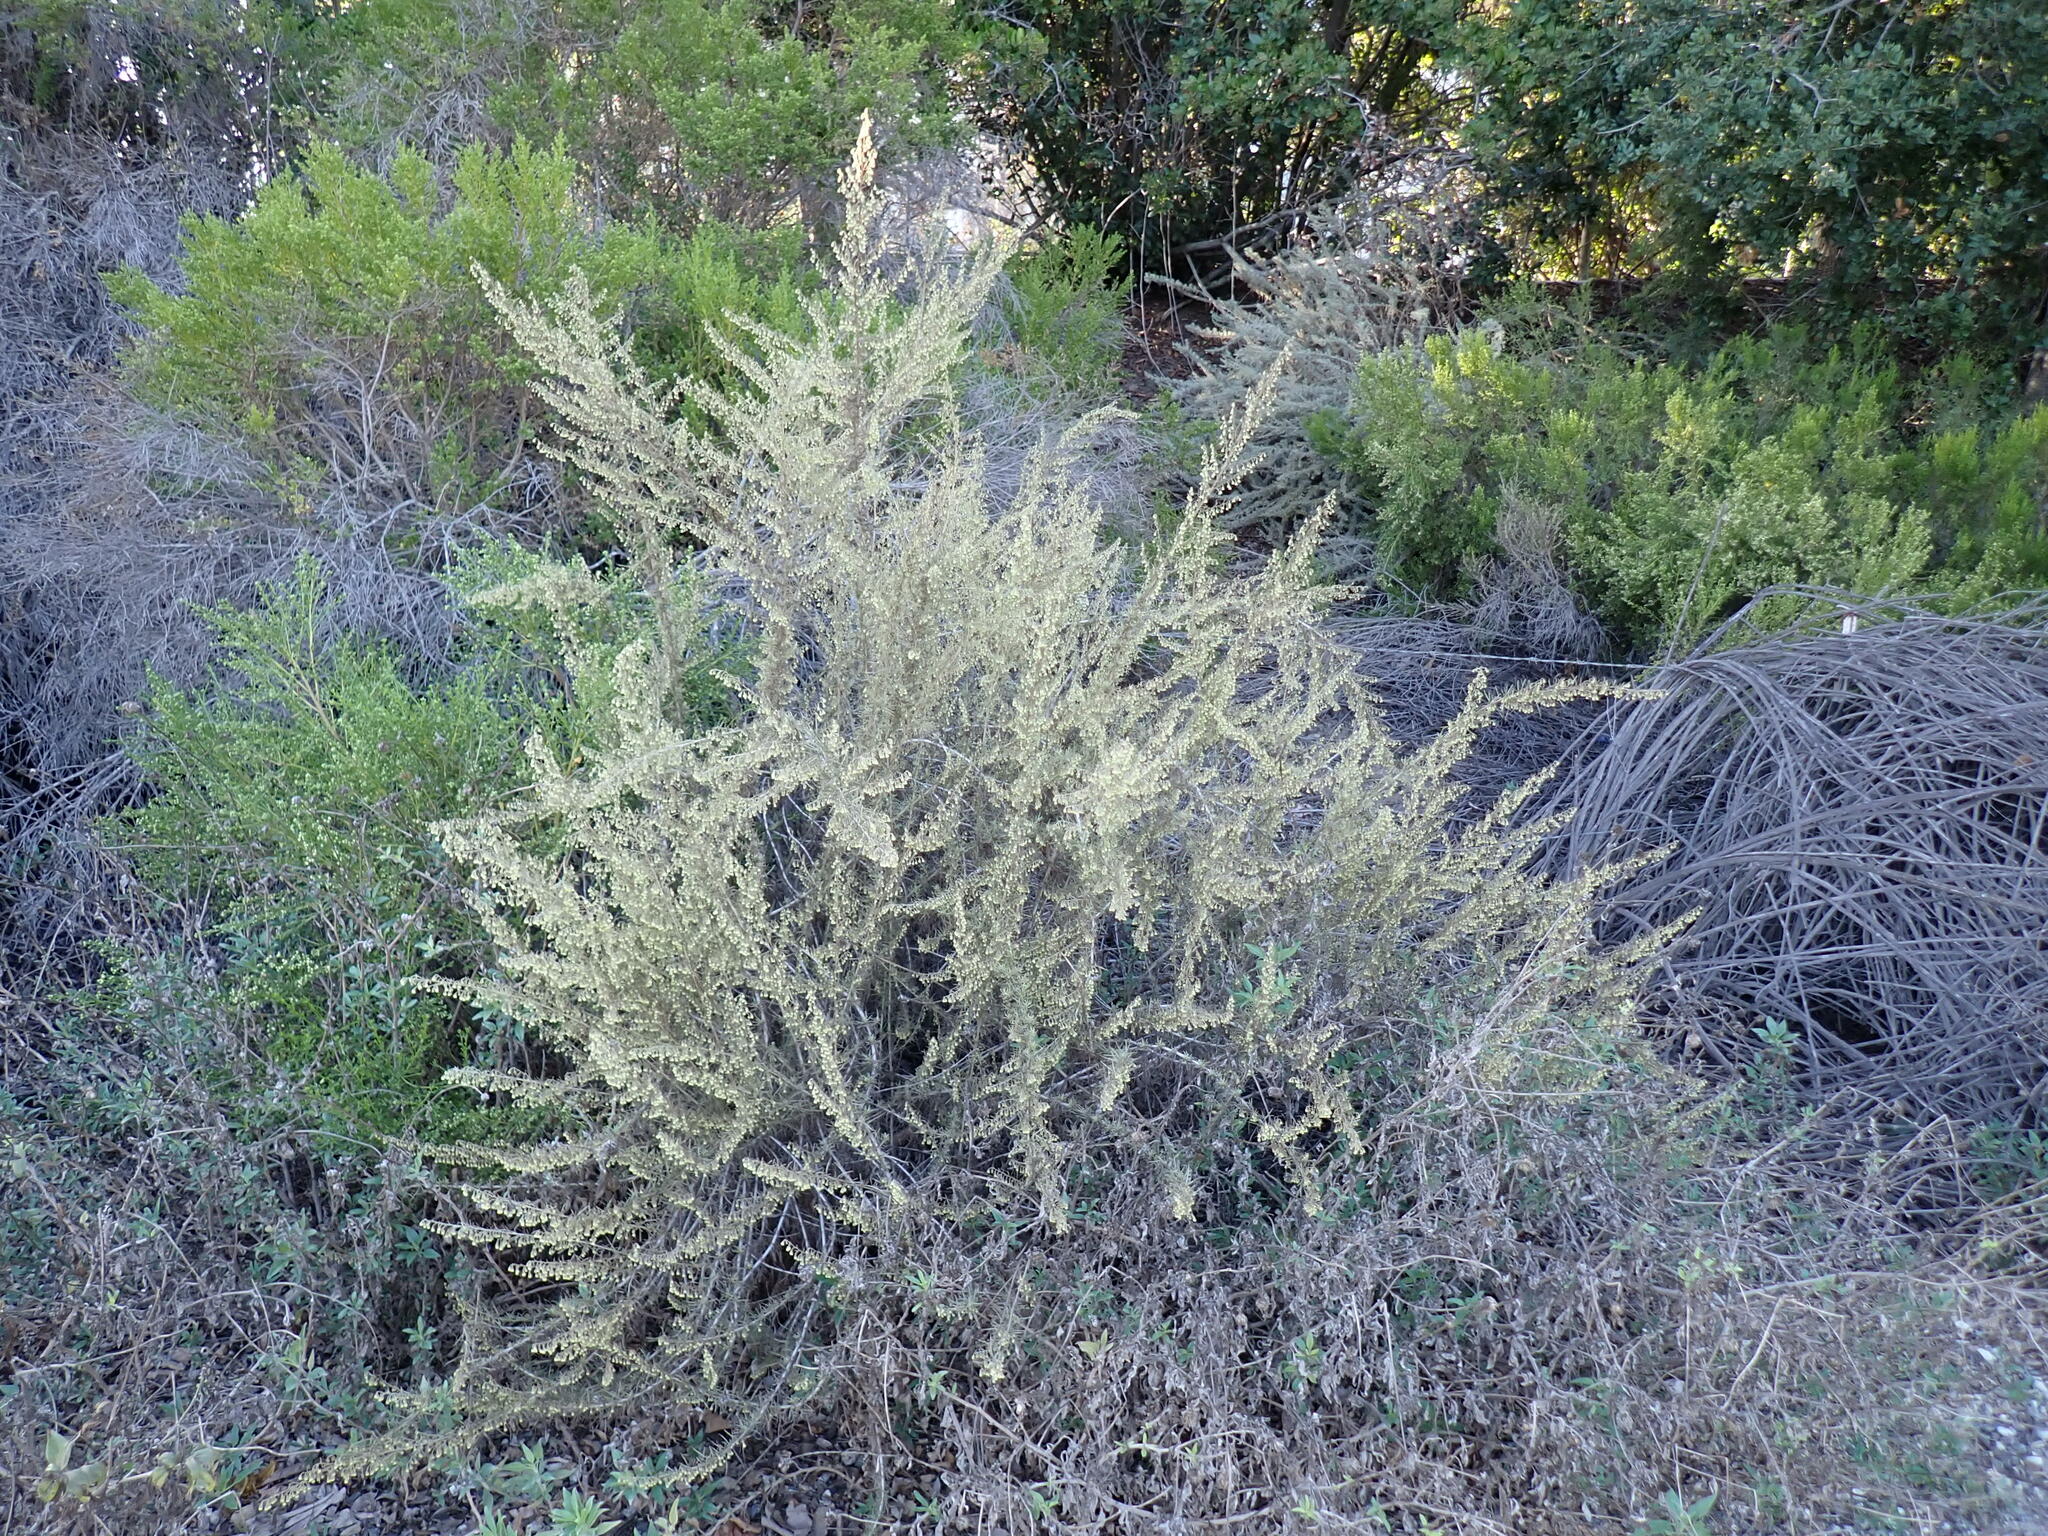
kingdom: Plantae
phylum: Tracheophyta
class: Magnoliopsida
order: Asterales
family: Asteraceae
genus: Artemisia
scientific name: Artemisia californica
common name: California sagebrush
